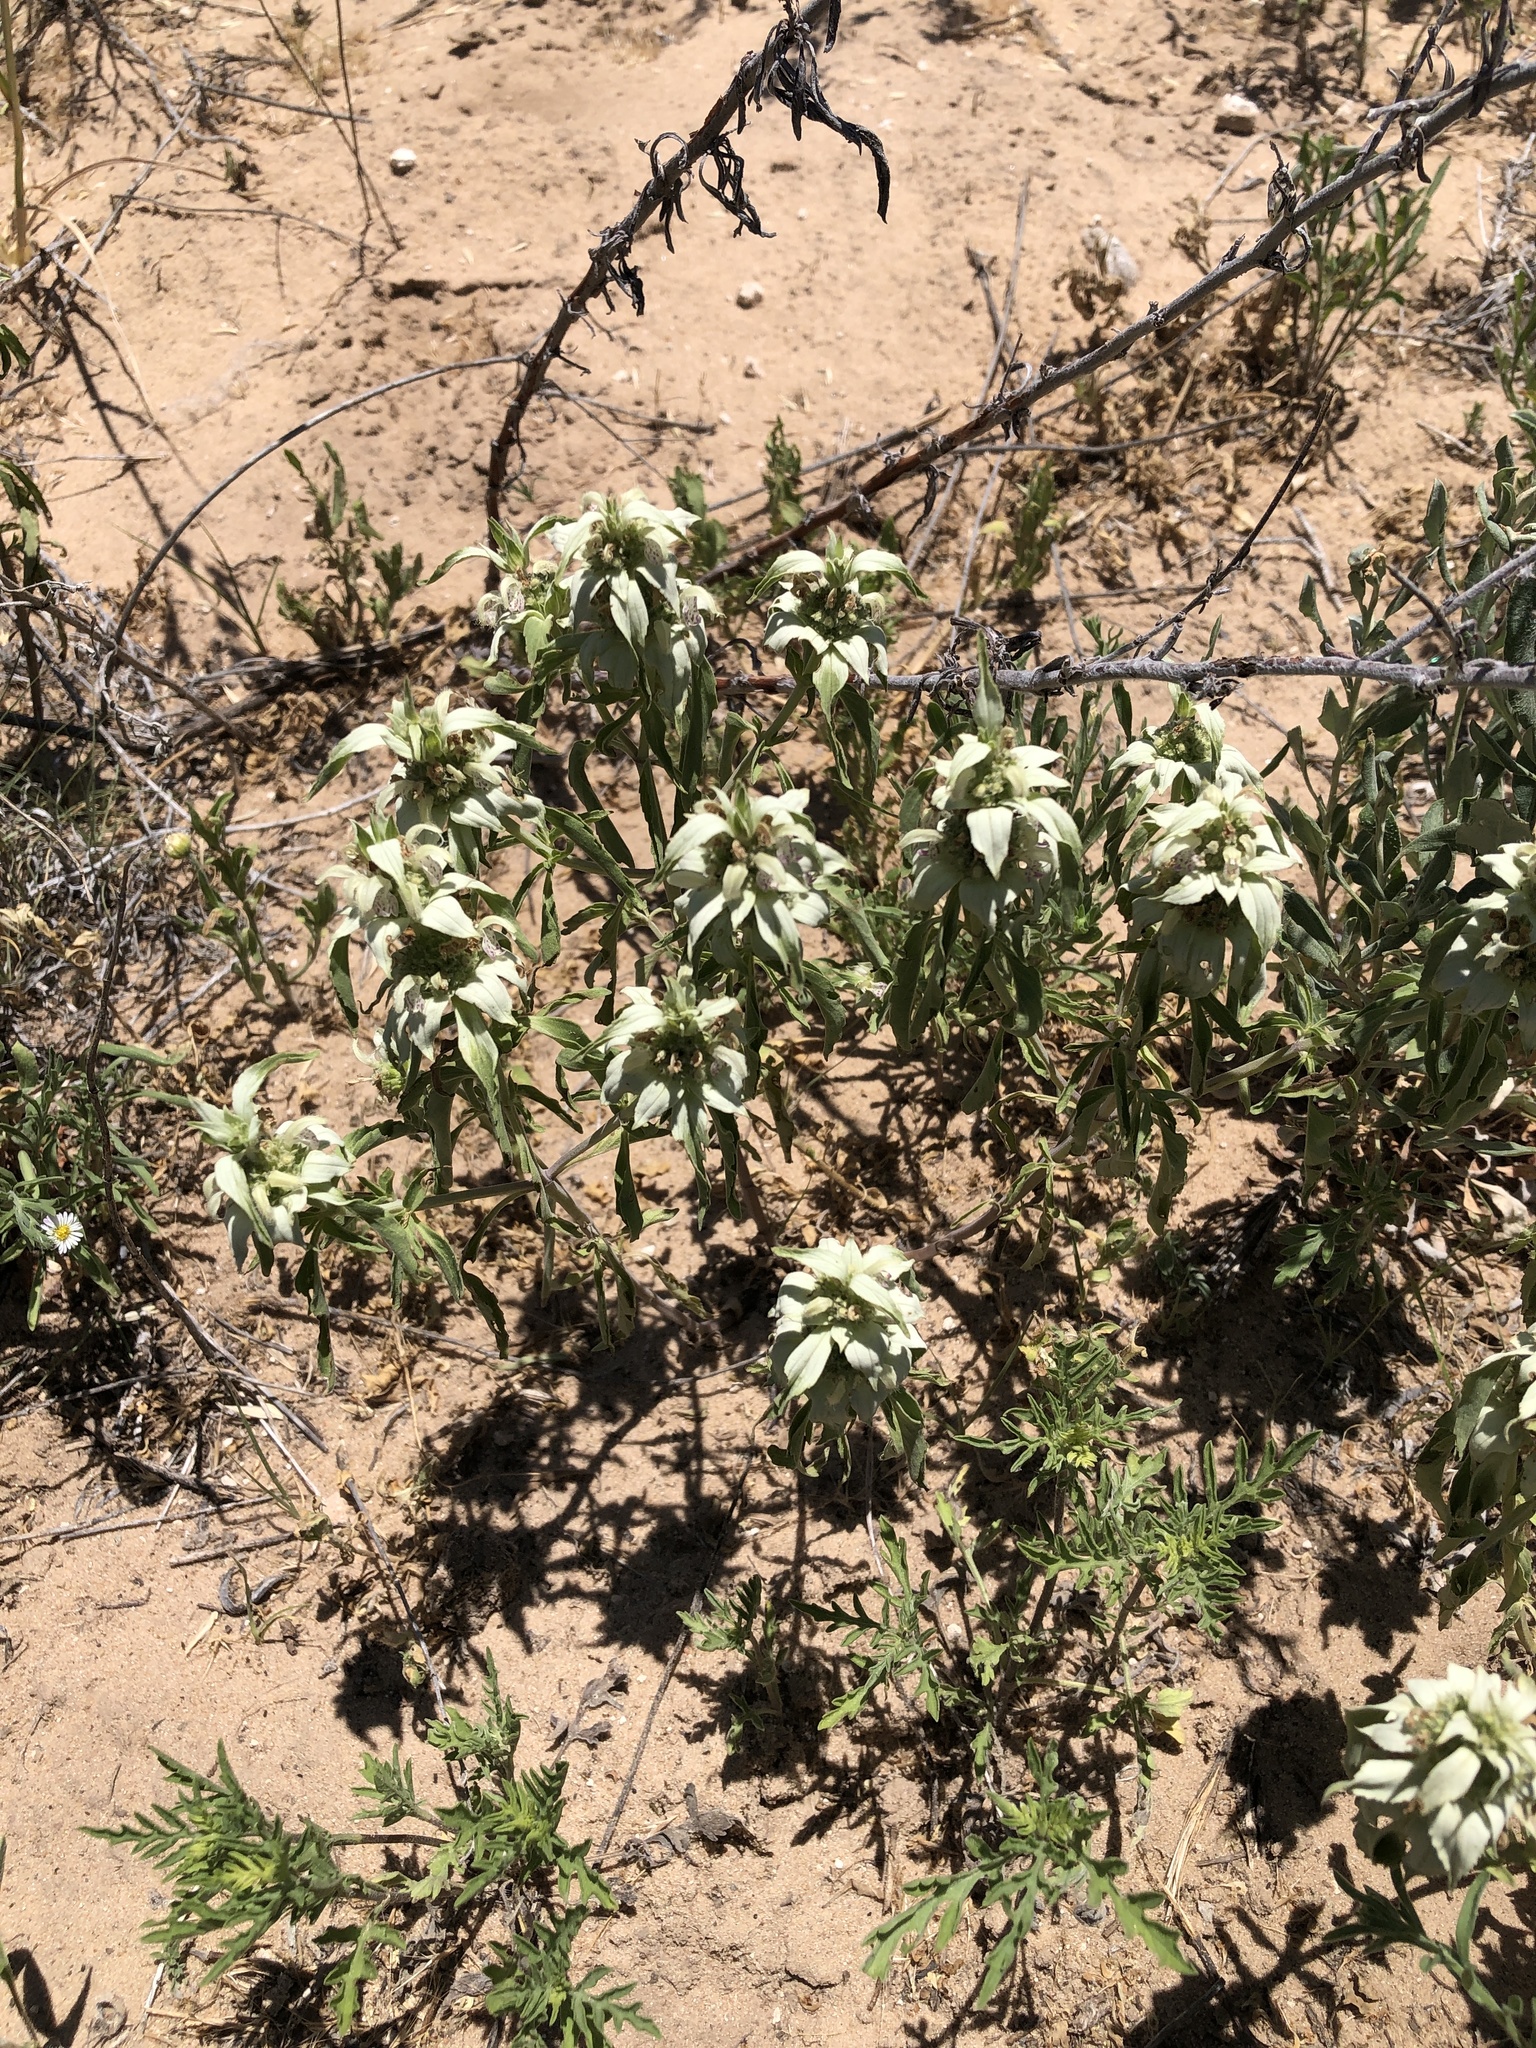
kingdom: Plantae
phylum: Tracheophyta
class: Magnoliopsida
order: Lamiales
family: Lamiaceae
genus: Monarda
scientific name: Monarda punctata
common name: Dotted monarda
